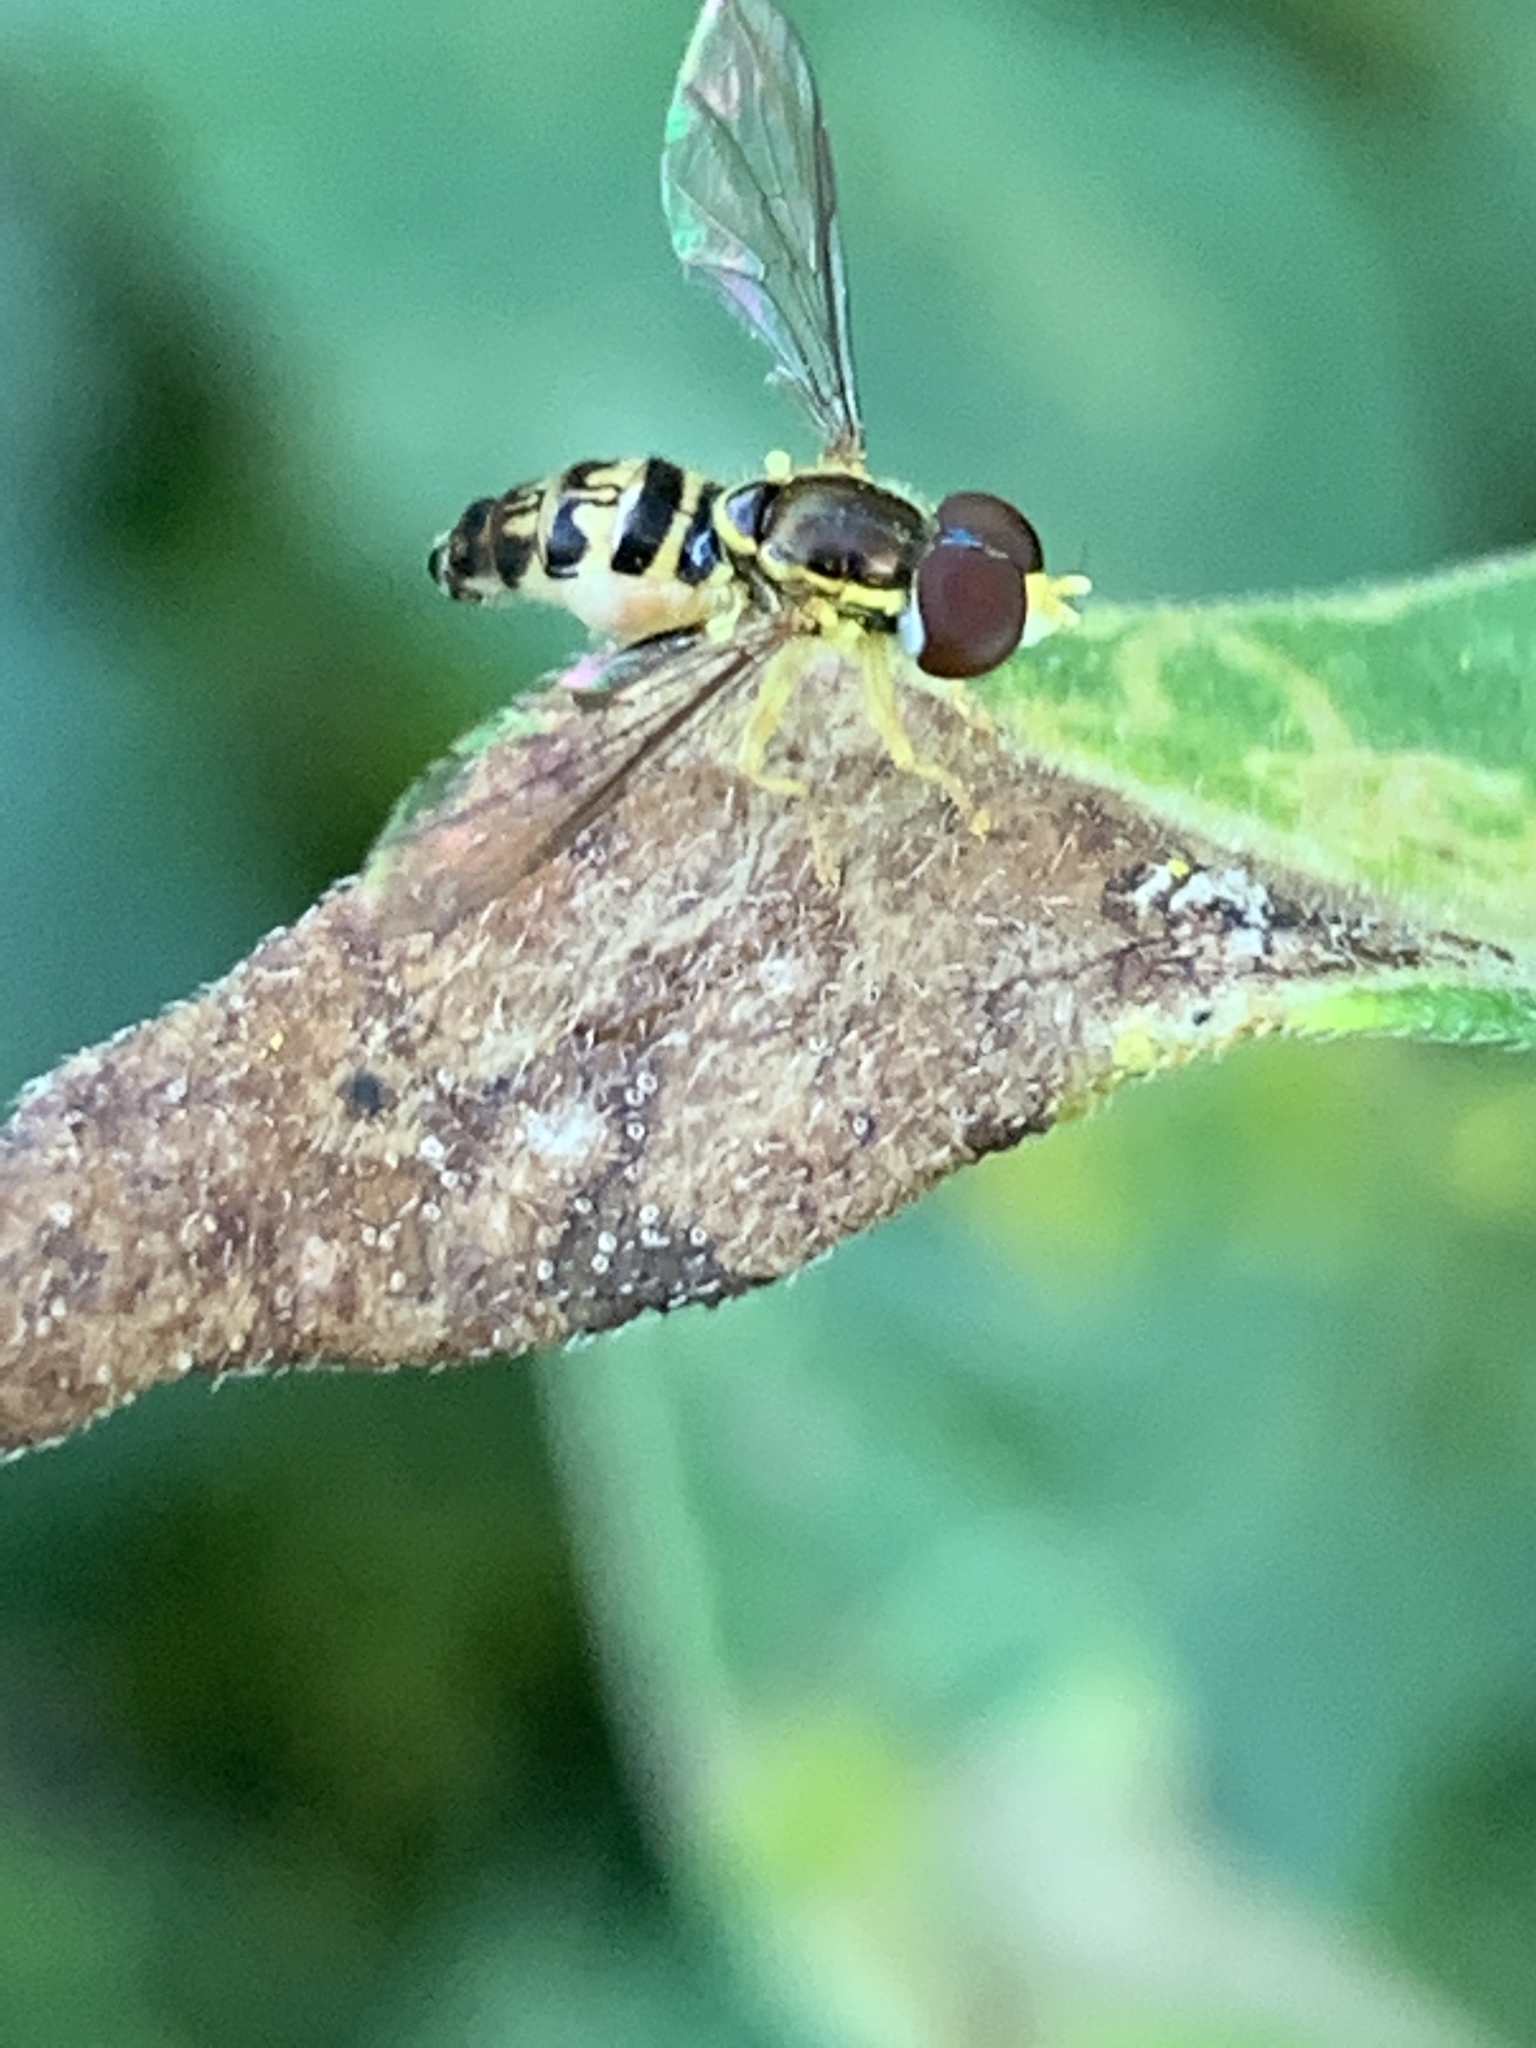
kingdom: Animalia
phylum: Arthropoda
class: Insecta
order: Diptera
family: Syrphidae
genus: Toxomerus
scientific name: Toxomerus geminatus
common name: Eastern calligrapher
